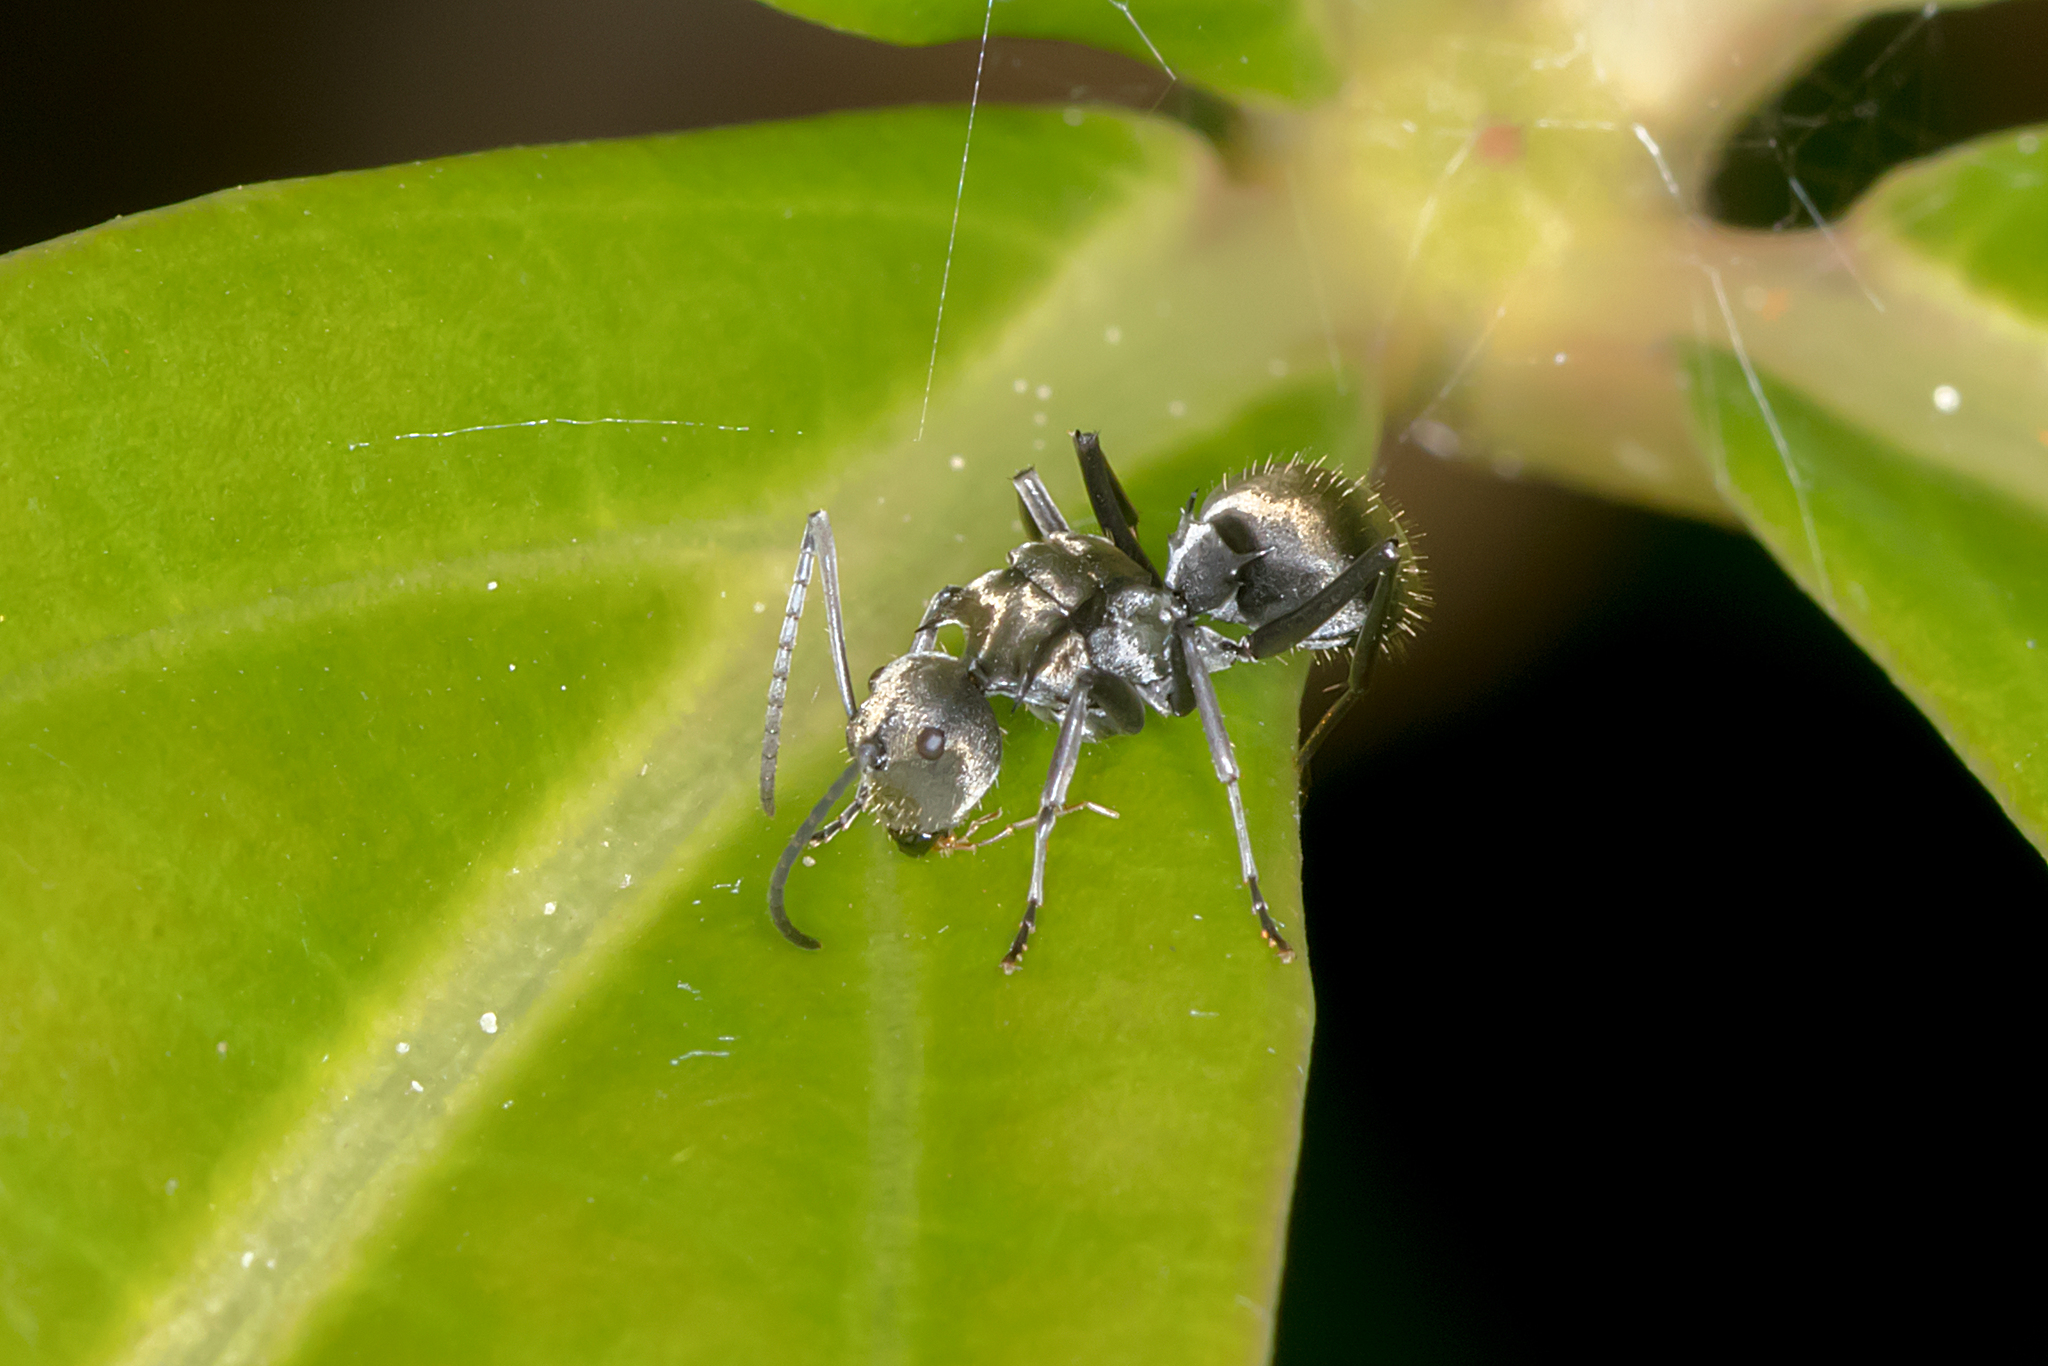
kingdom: Animalia
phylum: Arthropoda
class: Insecta
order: Hymenoptera
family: Formicidae
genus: Polyrhachis
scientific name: Polyrhachis foreli
